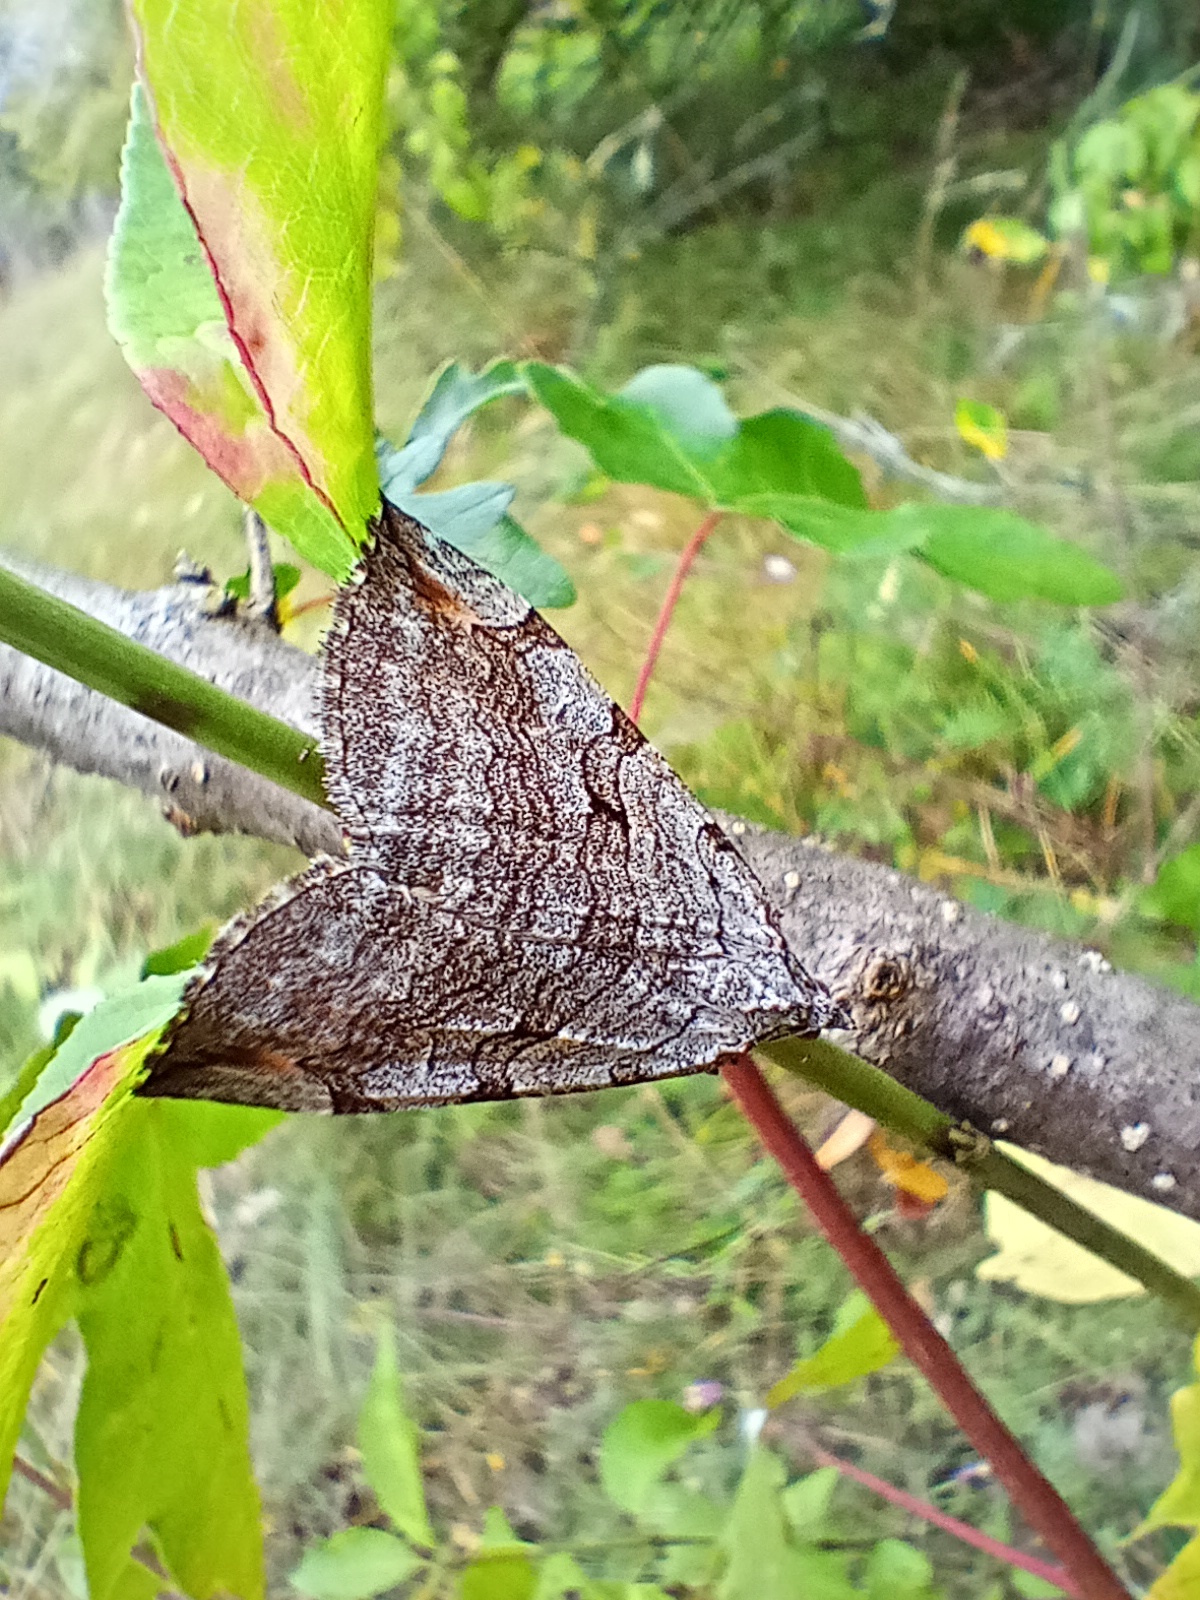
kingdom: Animalia
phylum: Arthropoda
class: Insecta
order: Lepidoptera
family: Geometridae
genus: Aplocera
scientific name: Aplocera plagiata
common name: Treble-bar
